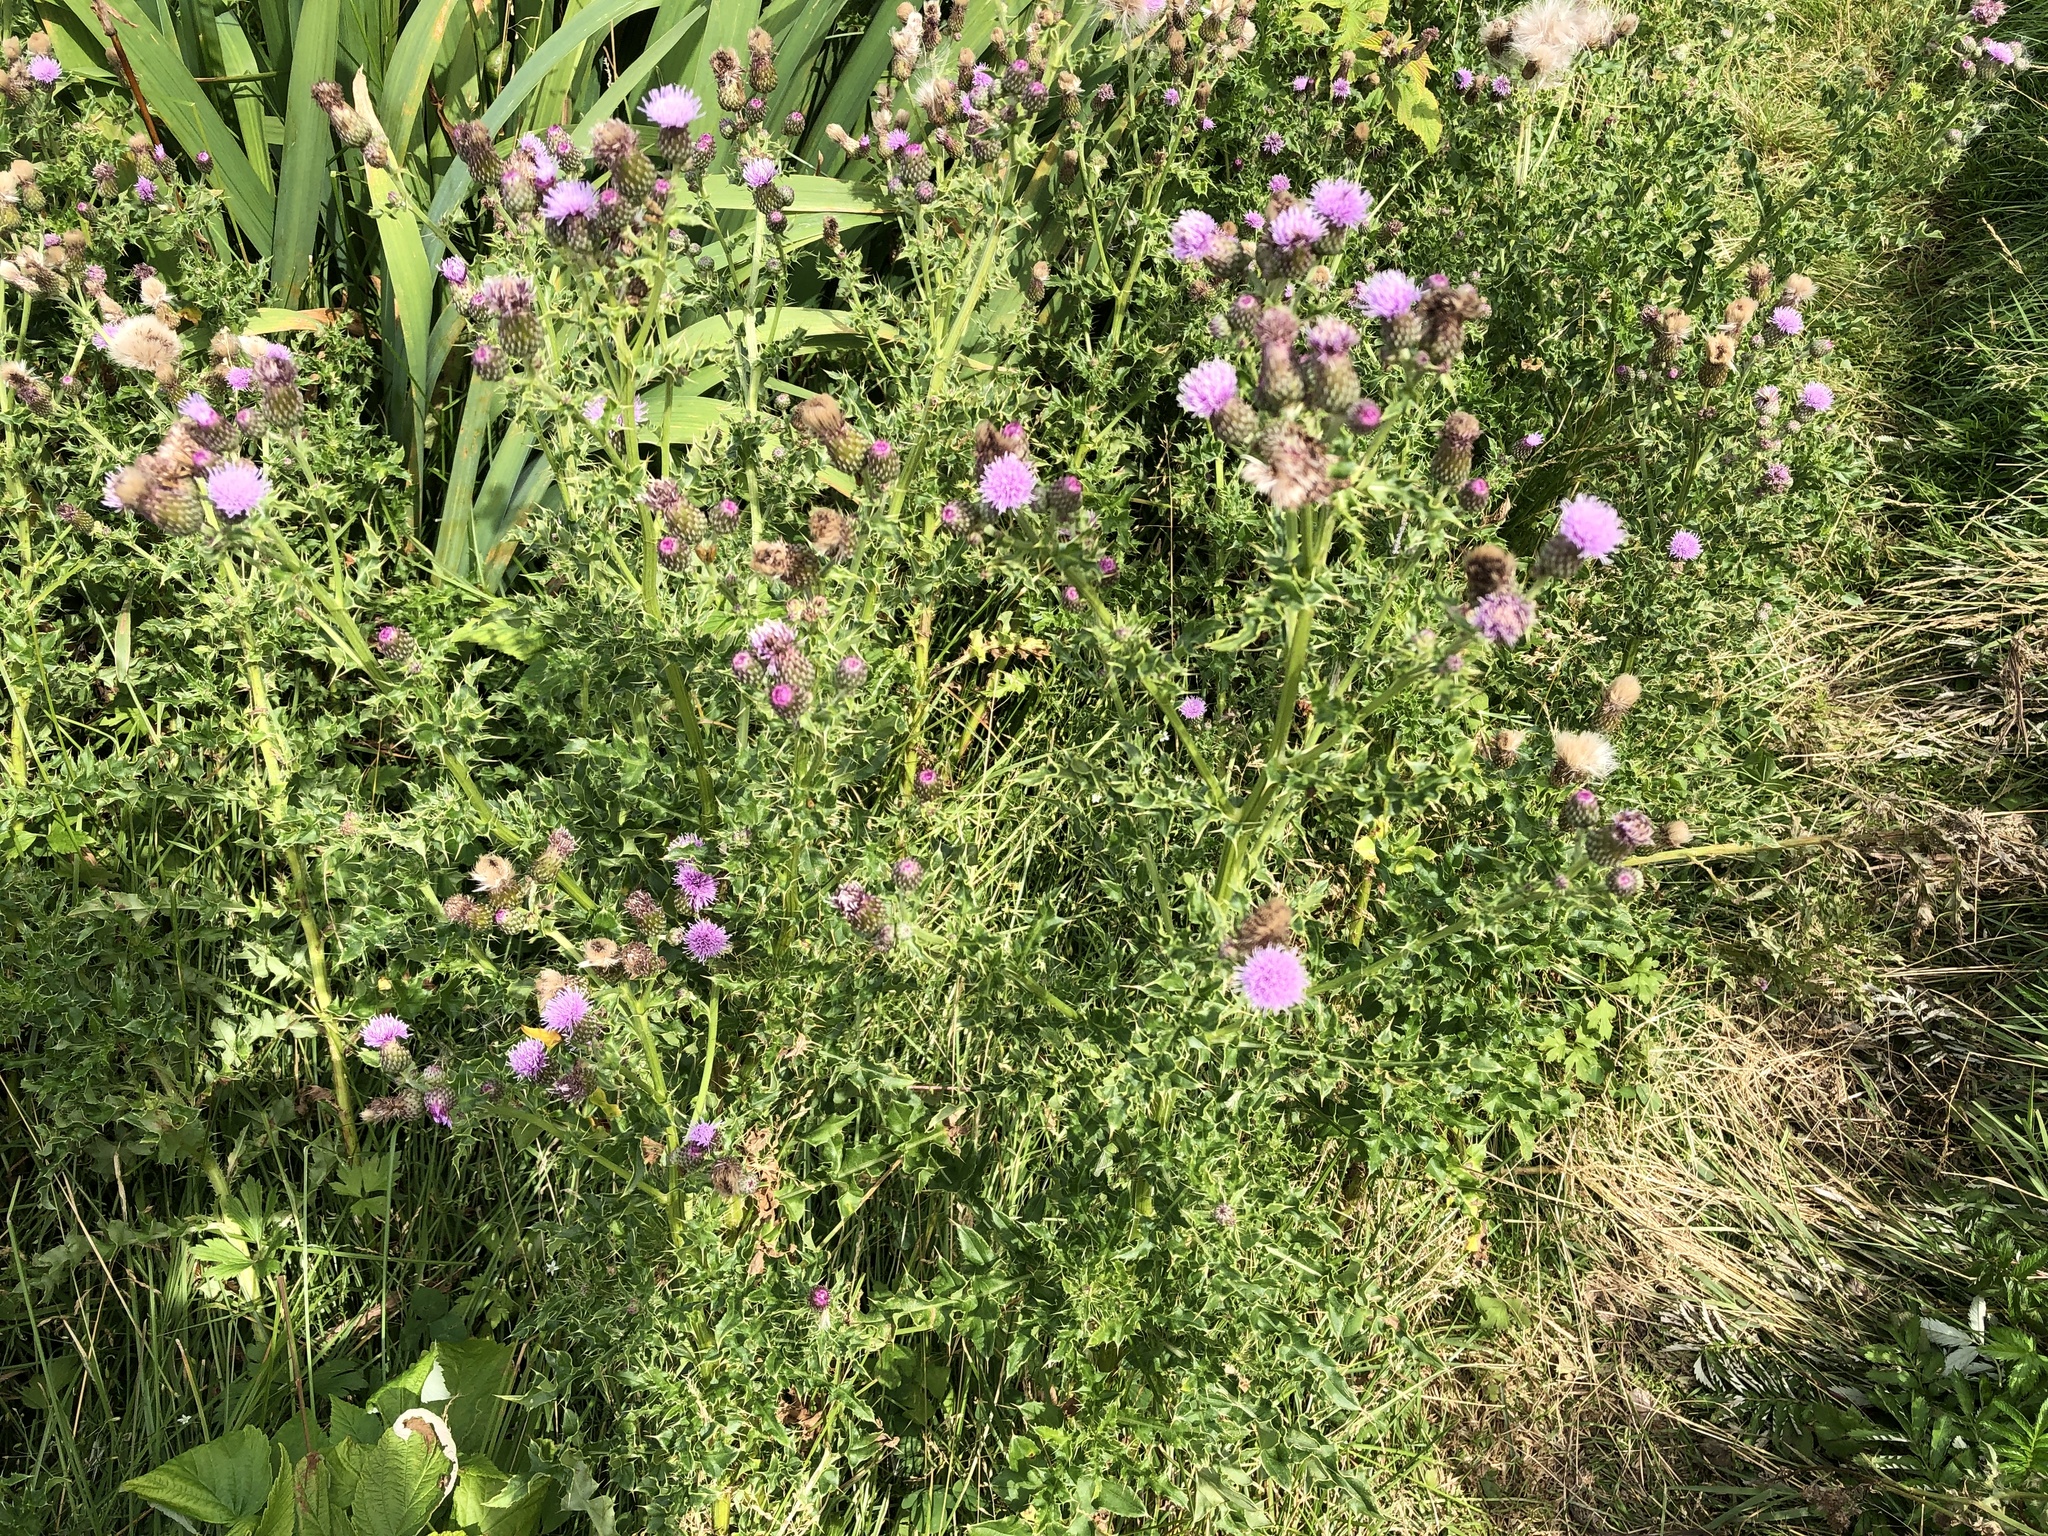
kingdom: Plantae
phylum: Tracheophyta
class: Magnoliopsida
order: Asterales
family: Asteraceae
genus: Cirsium
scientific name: Cirsium arvense
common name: Creeping thistle
